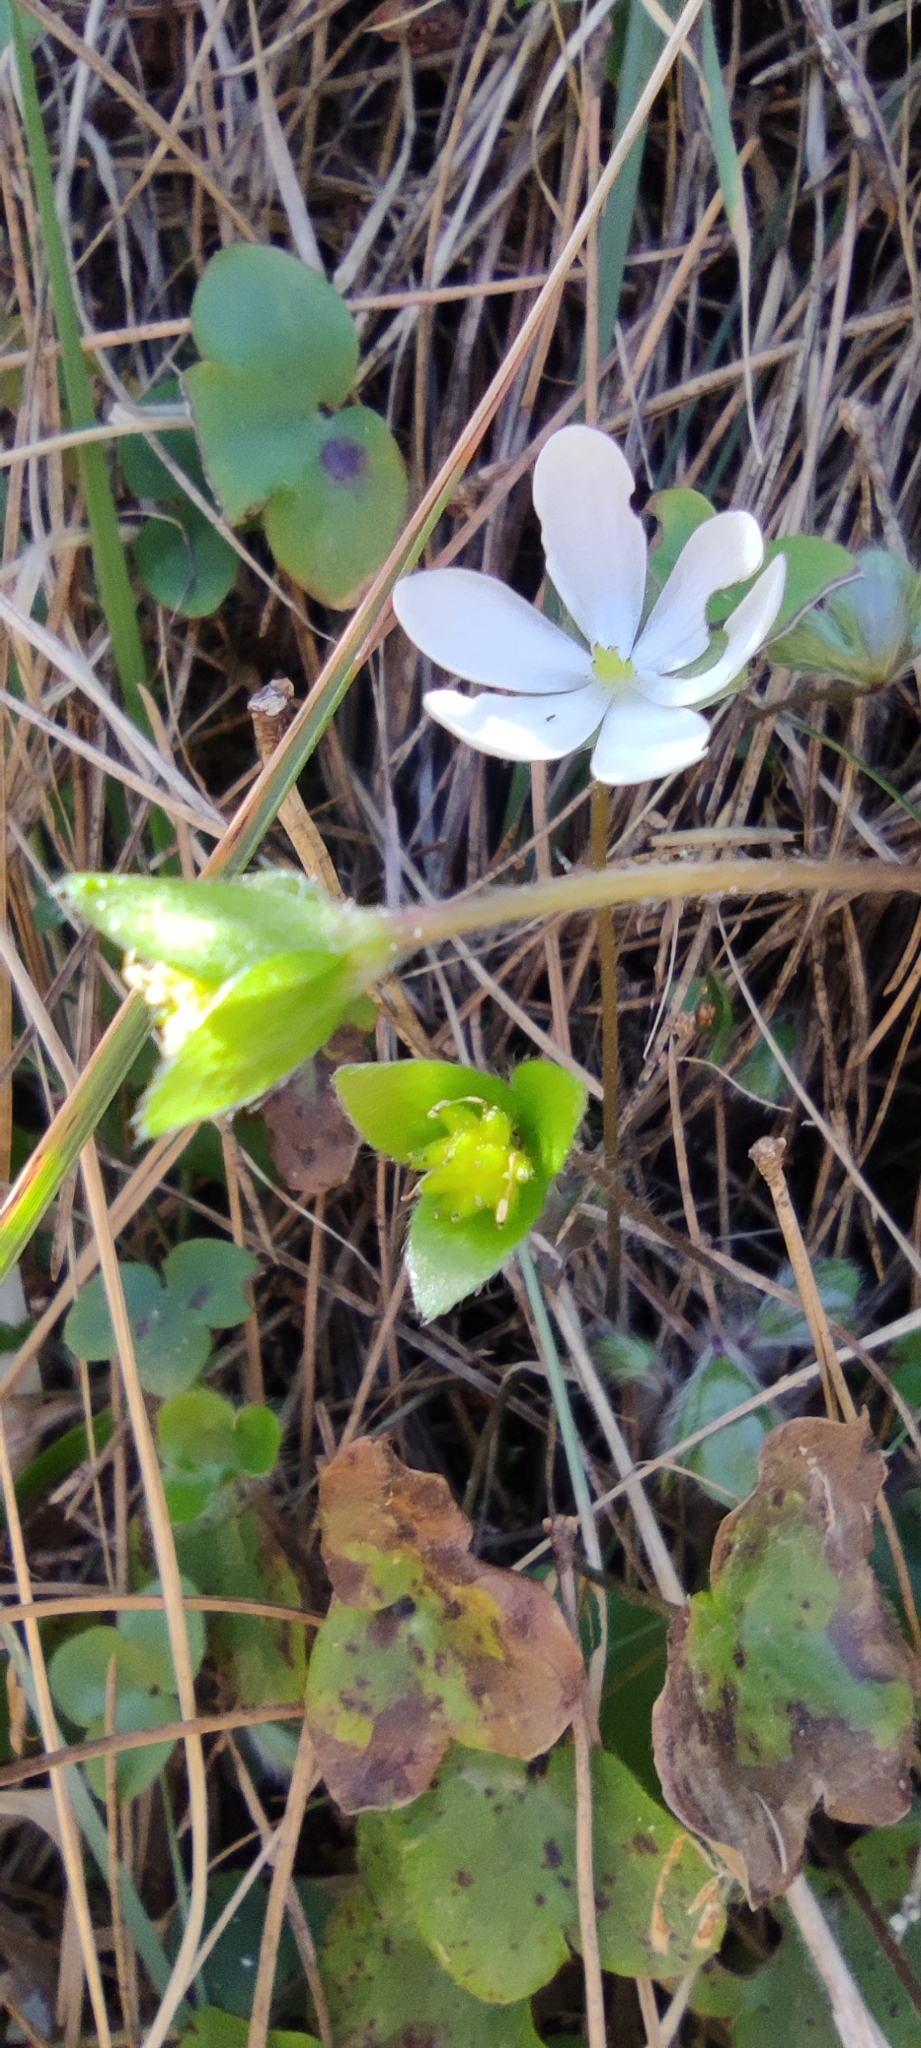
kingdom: Plantae
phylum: Tracheophyta
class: Magnoliopsida
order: Ranunculales
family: Ranunculaceae
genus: Hepatica
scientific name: Hepatica nobilis
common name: Liverleaf
